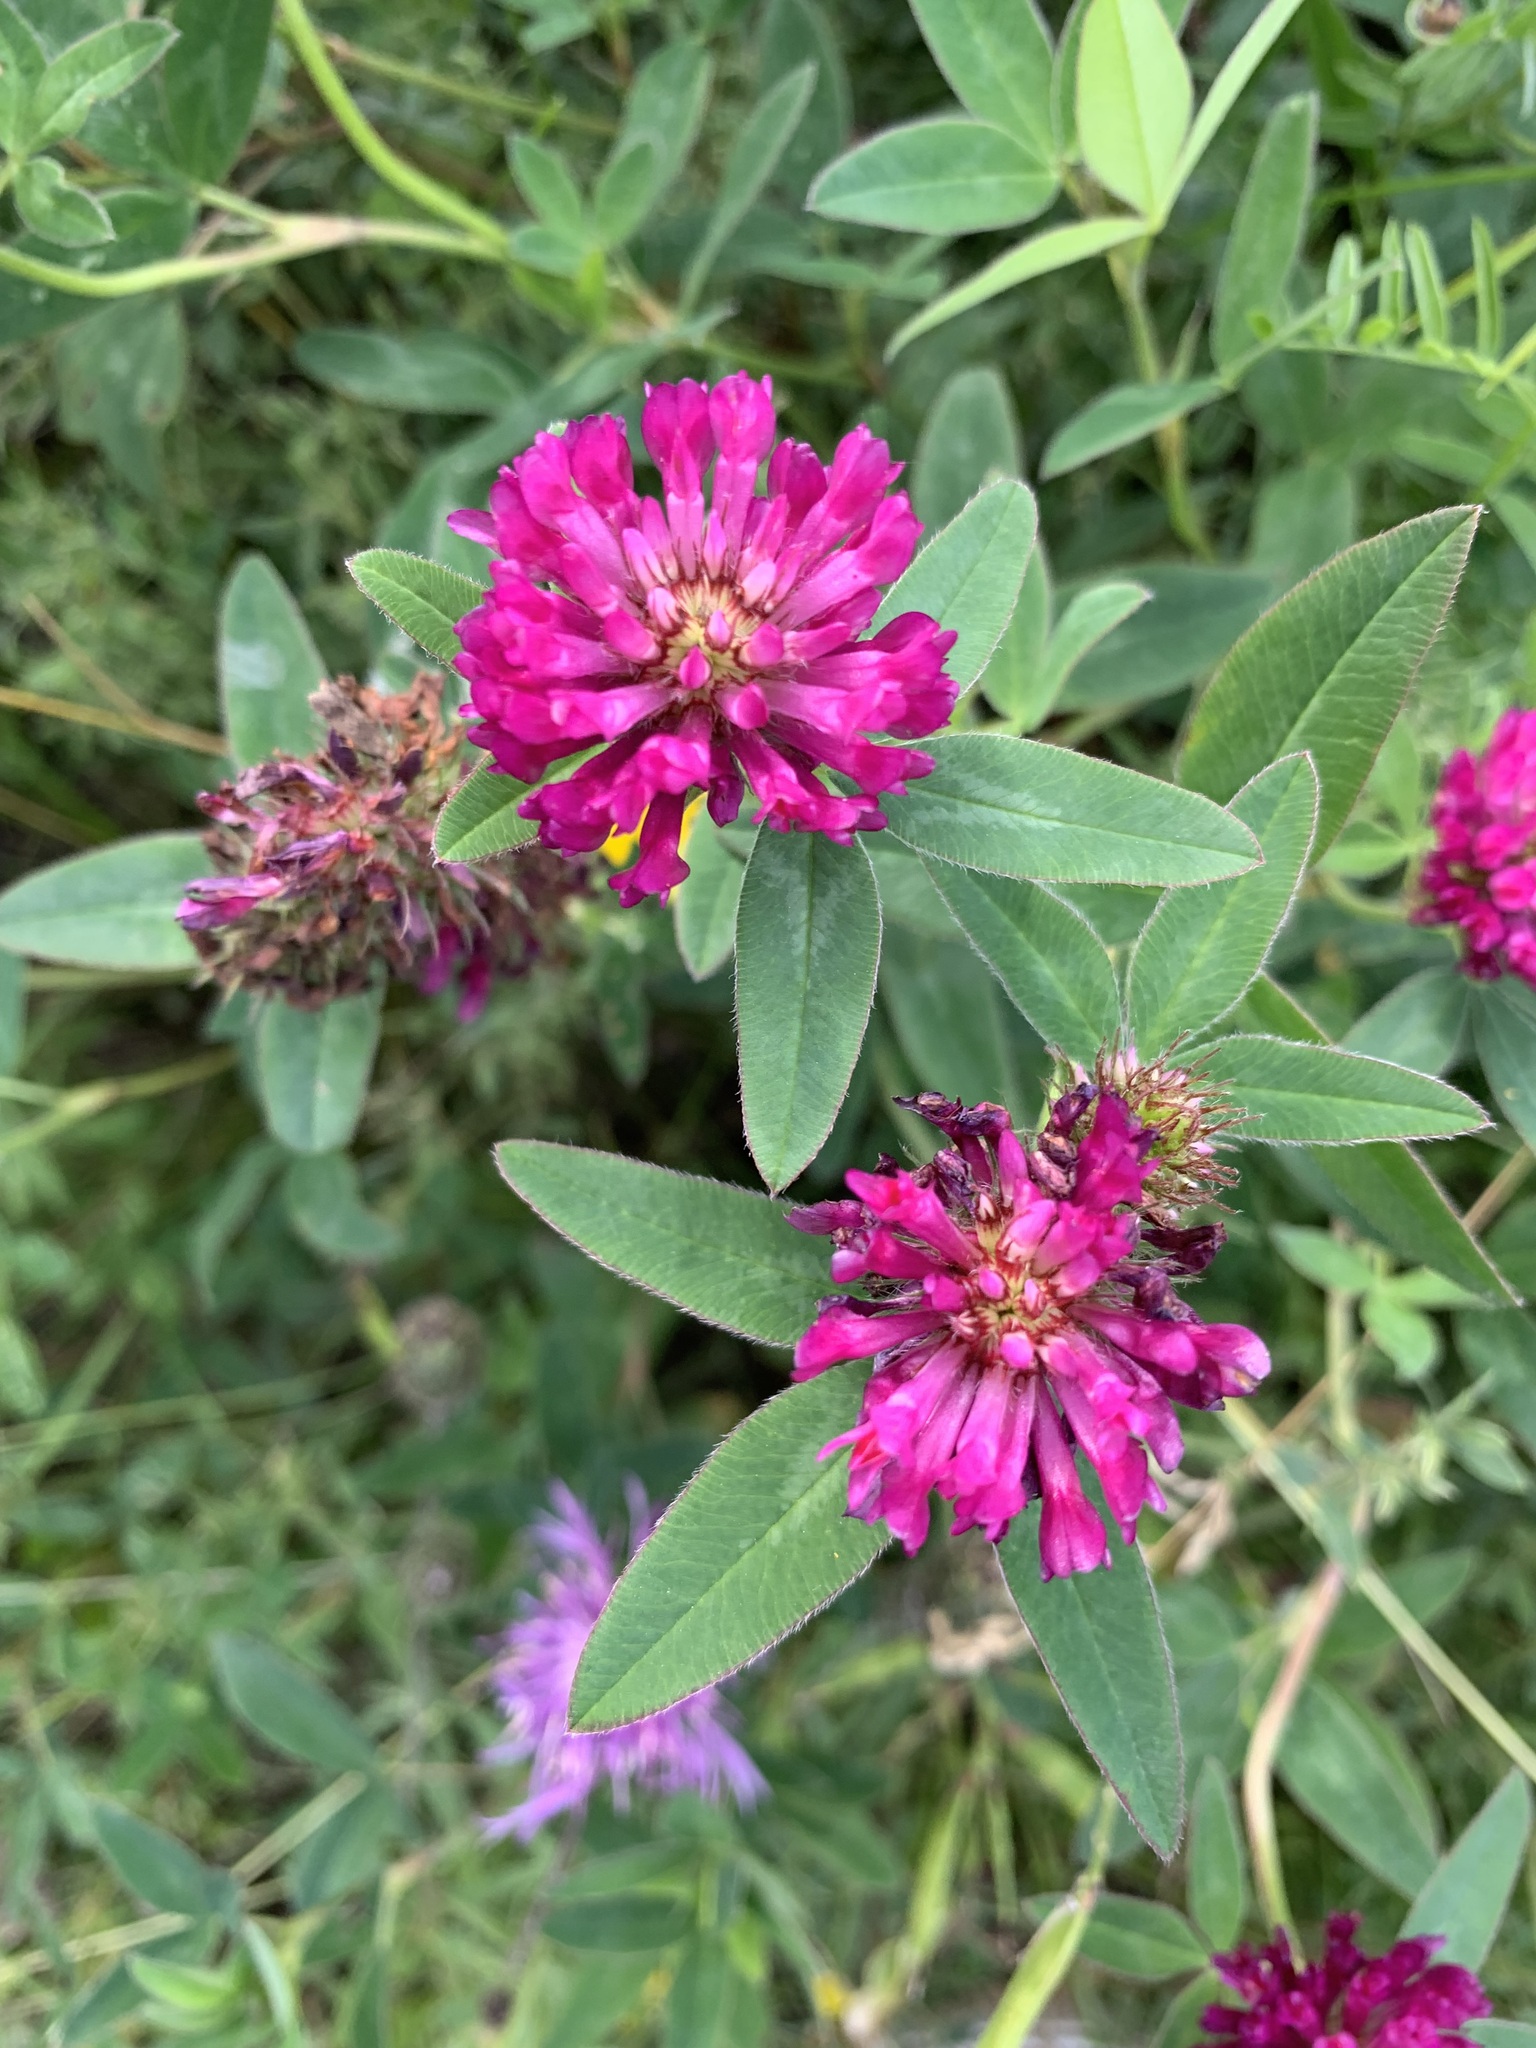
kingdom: Plantae
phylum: Tracheophyta
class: Magnoliopsida
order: Fabales
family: Fabaceae
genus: Trifolium
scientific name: Trifolium medium
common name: Zigzag clover
